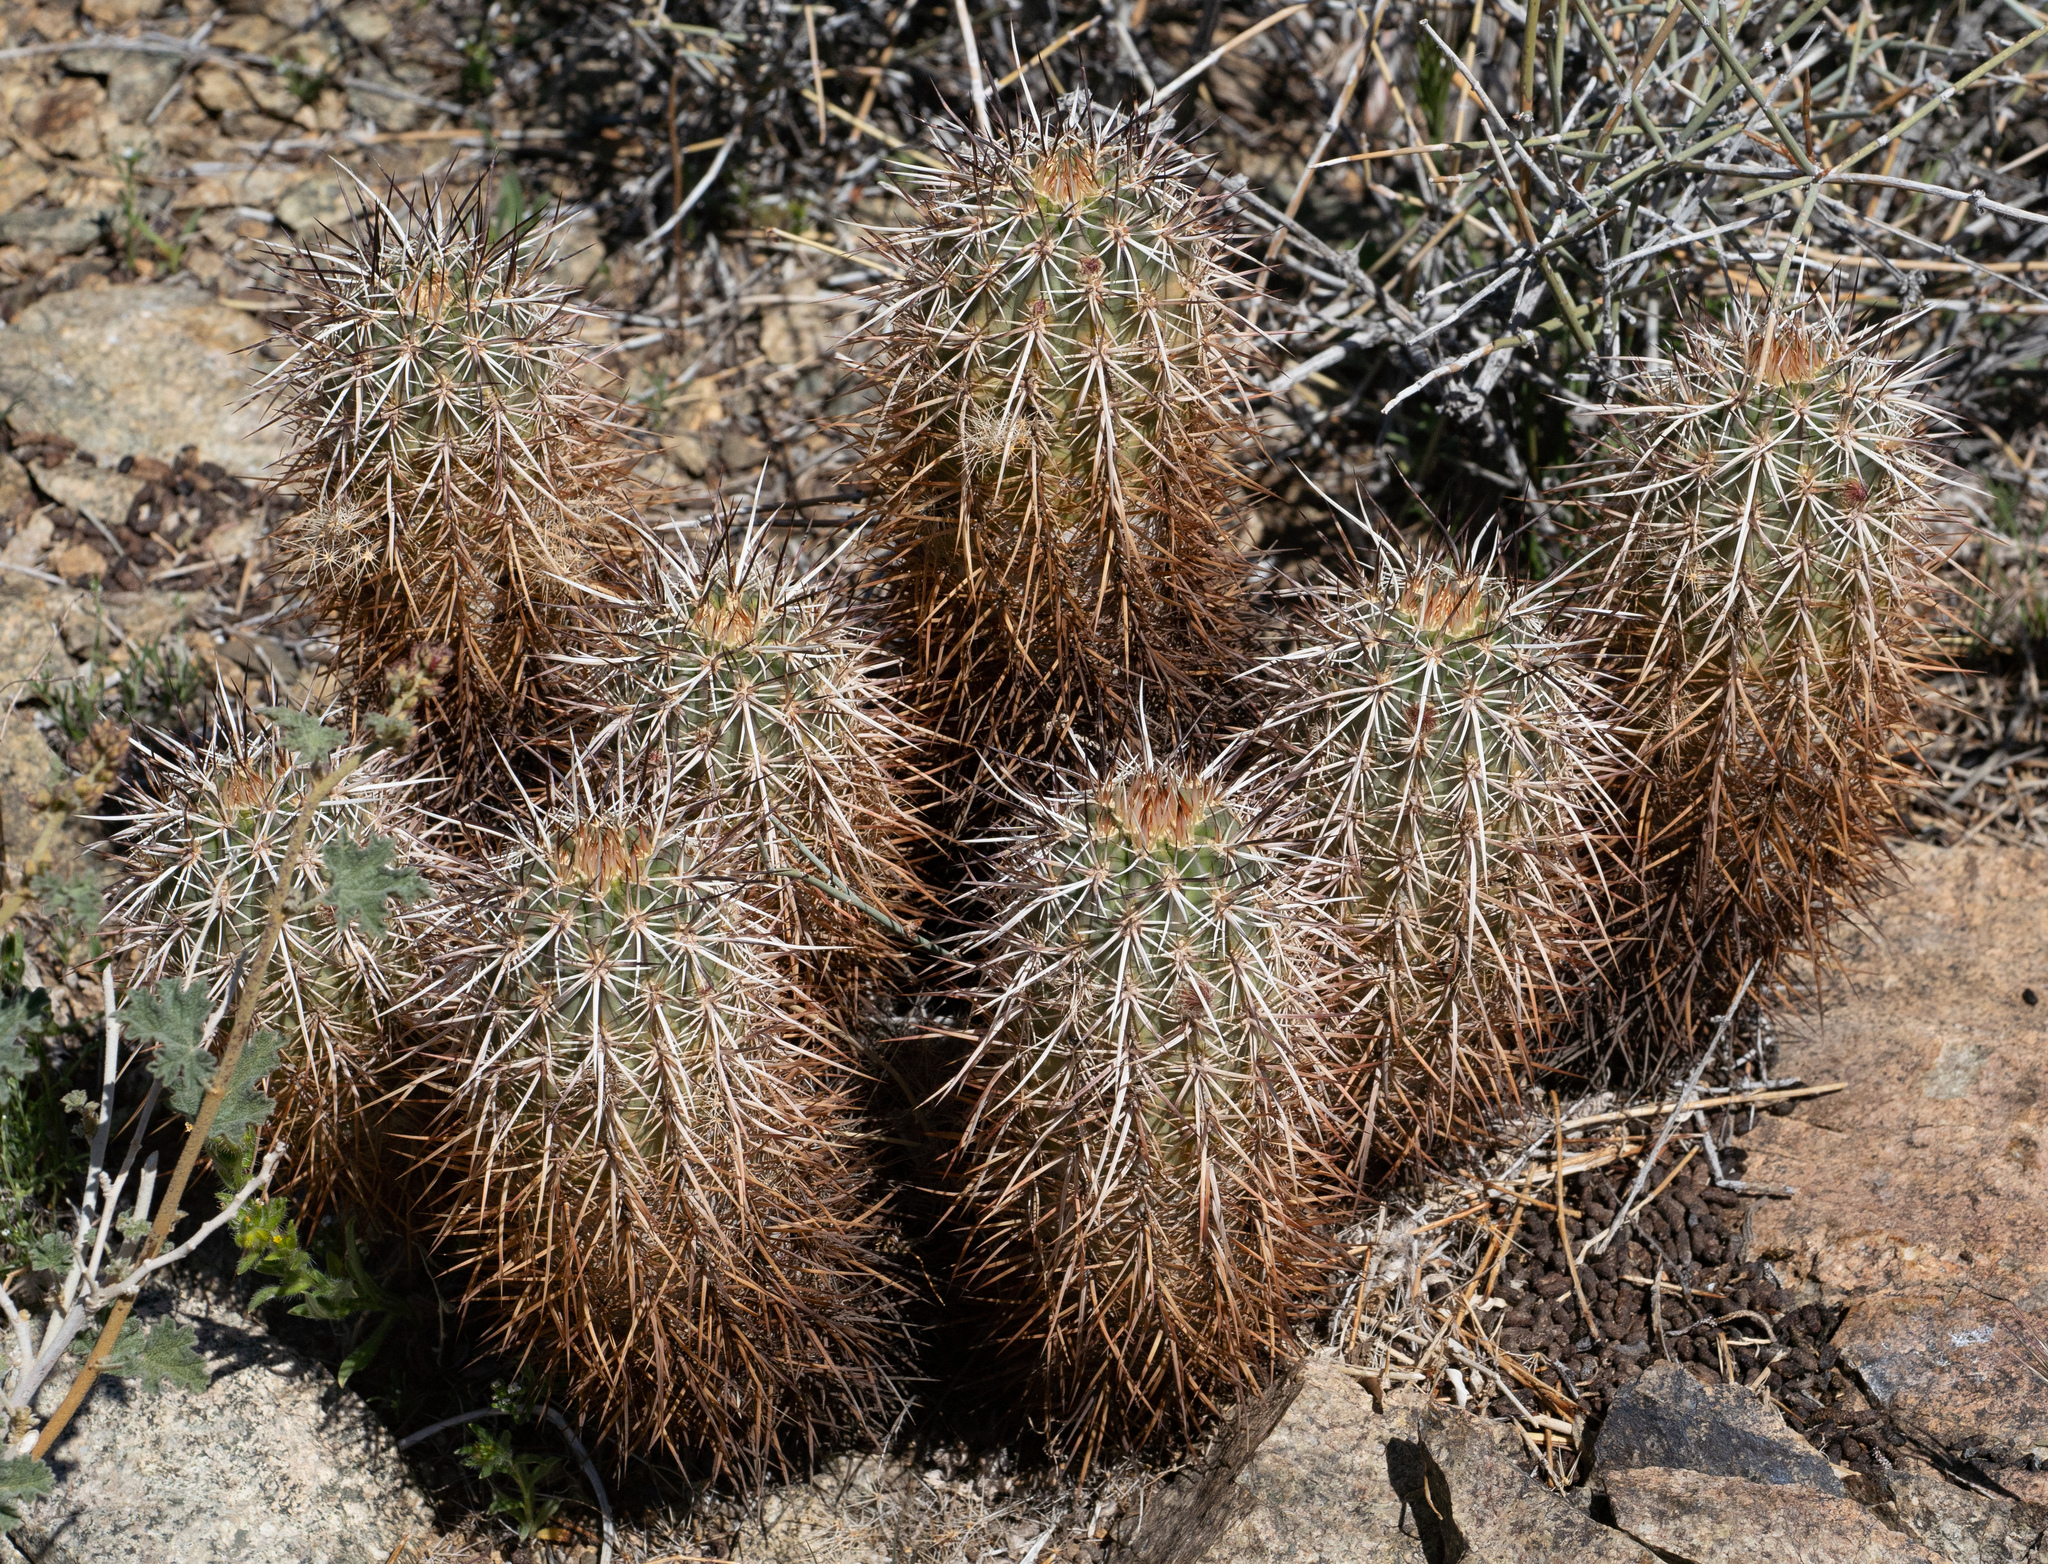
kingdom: Plantae
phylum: Tracheophyta
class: Magnoliopsida
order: Caryophyllales
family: Cactaceae
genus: Echinocereus
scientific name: Echinocereus engelmannii
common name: Engelmann's hedgehog cactus
